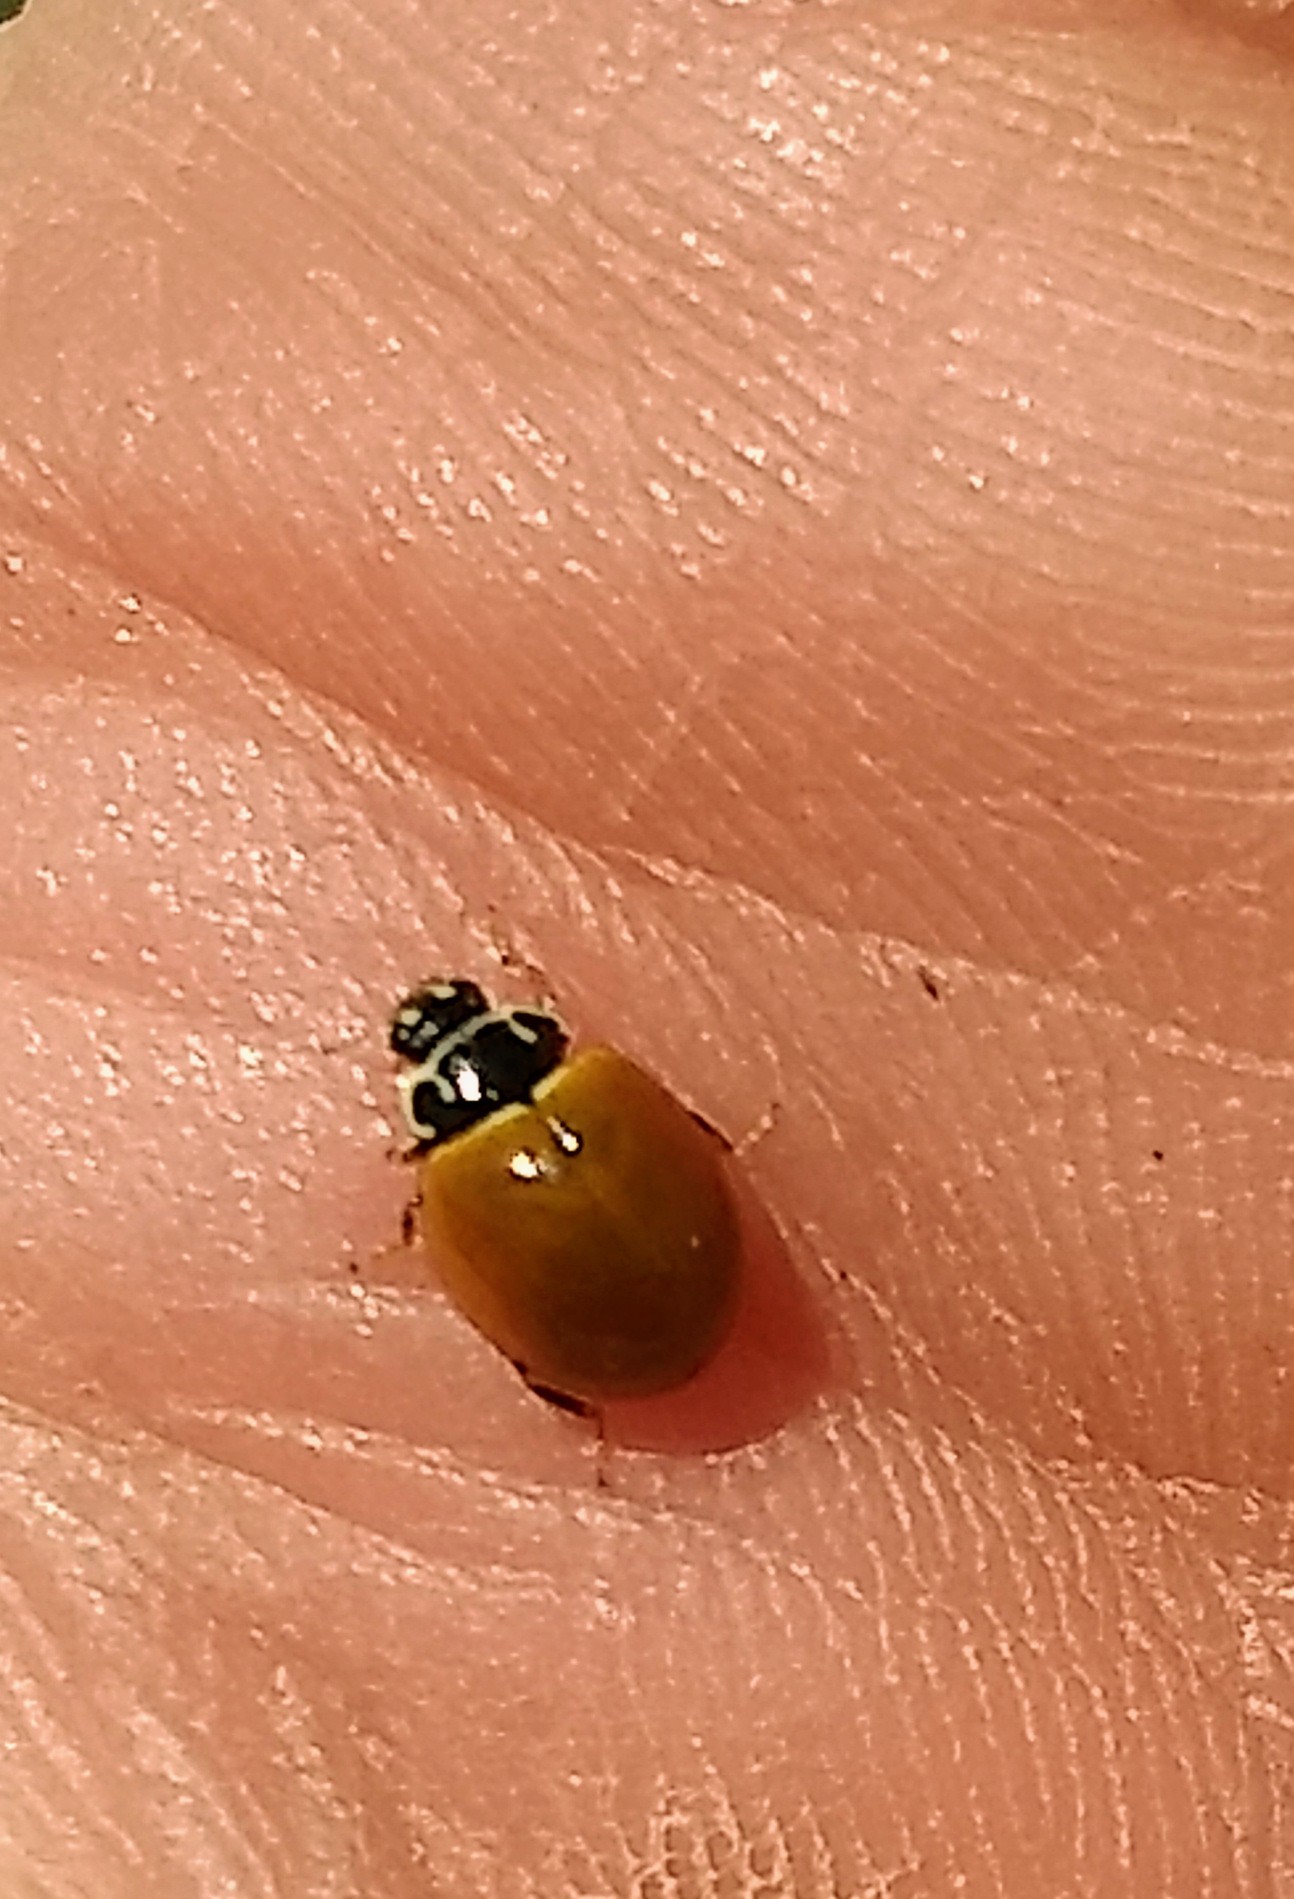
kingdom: Animalia
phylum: Arthropoda
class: Insecta
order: Coleoptera
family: Coccinellidae
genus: Cycloneda
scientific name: Cycloneda munda
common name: Polished lady beetle
